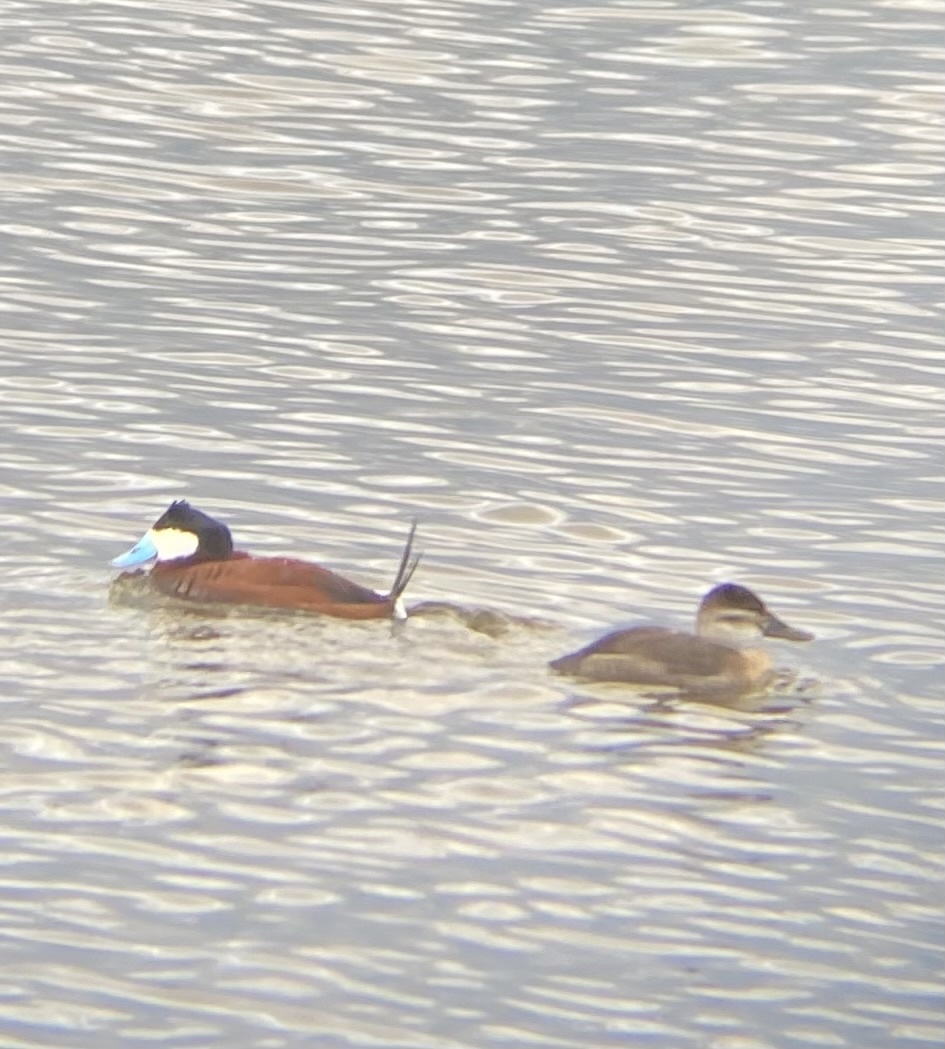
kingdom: Animalia
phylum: Chordata
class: Aves
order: Anseriformes
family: Anatidae
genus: Oxyura
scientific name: Oxyura jamaicensis
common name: Ruddy duck
